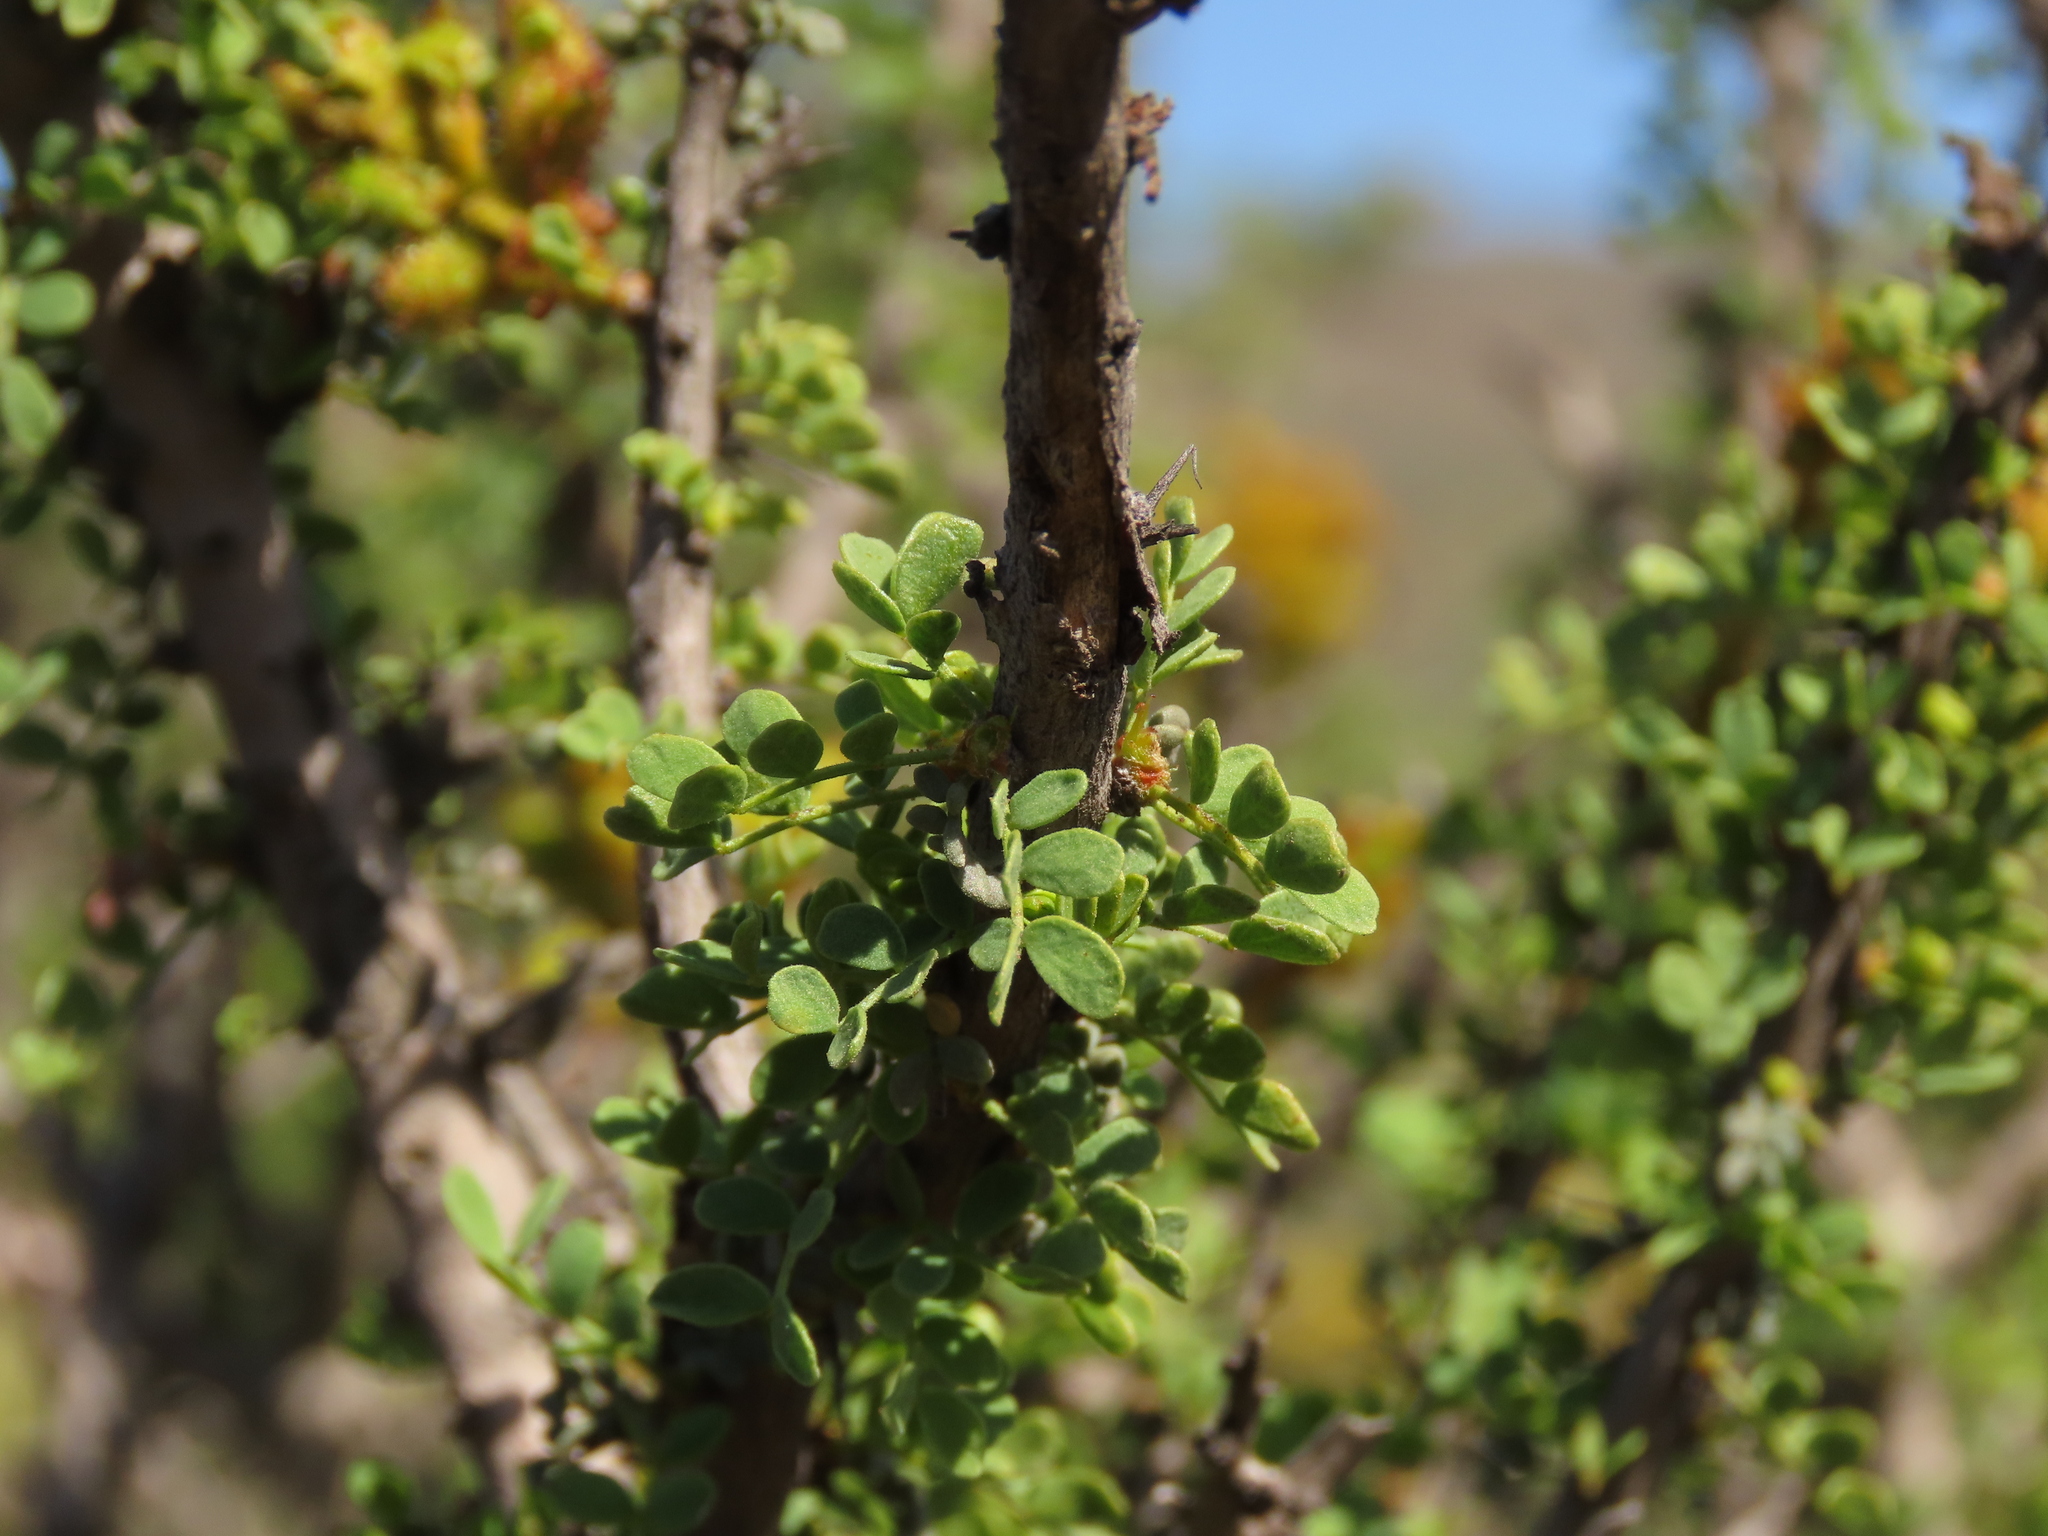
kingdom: Plantae
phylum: Tracheophyta
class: Magnoliopsida
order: Fabales
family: Fabaceae
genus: Balsamocarpon
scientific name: Balsamocarpon brevifolium
